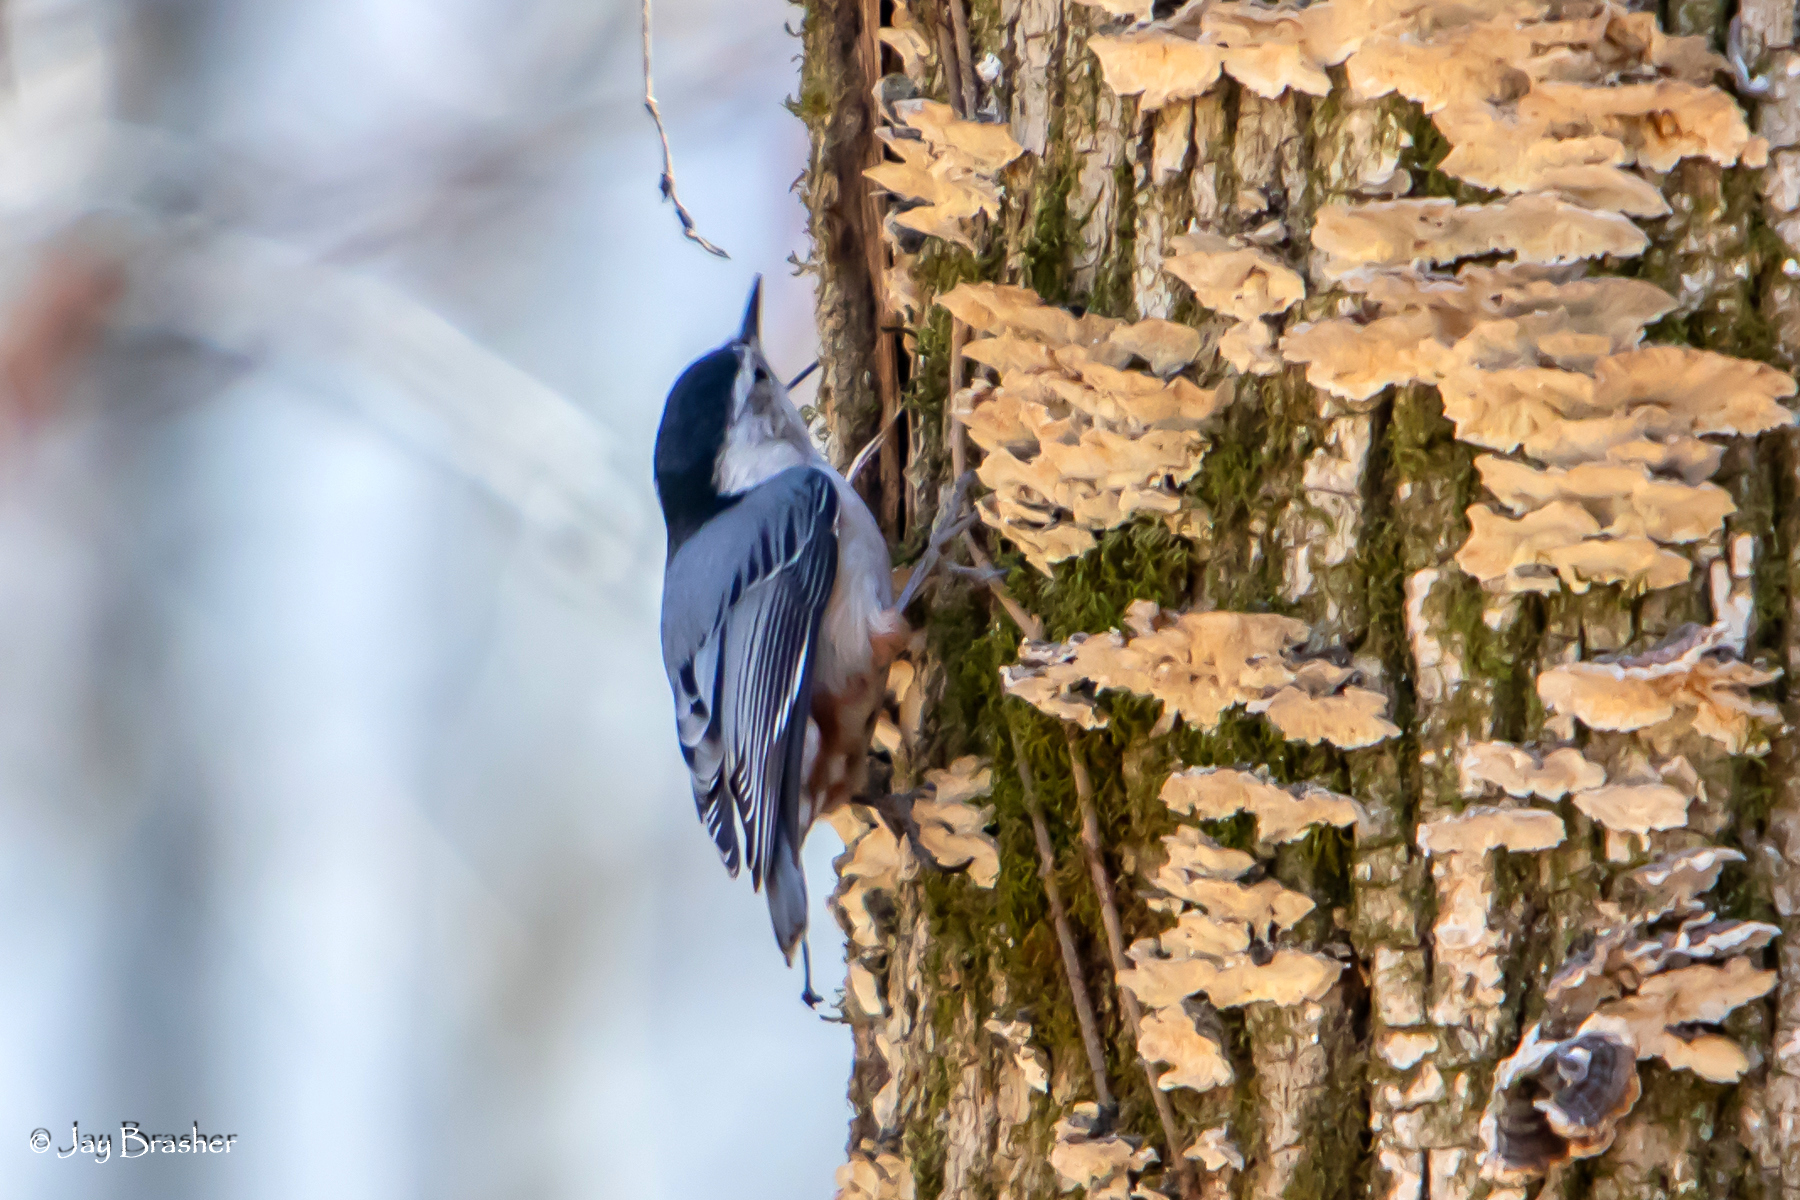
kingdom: Animalia
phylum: Chordata
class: Aves
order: Passeriformes
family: Sittidae
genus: Sitta
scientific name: Sitta carolinensis
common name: White-breasted nuthatch
